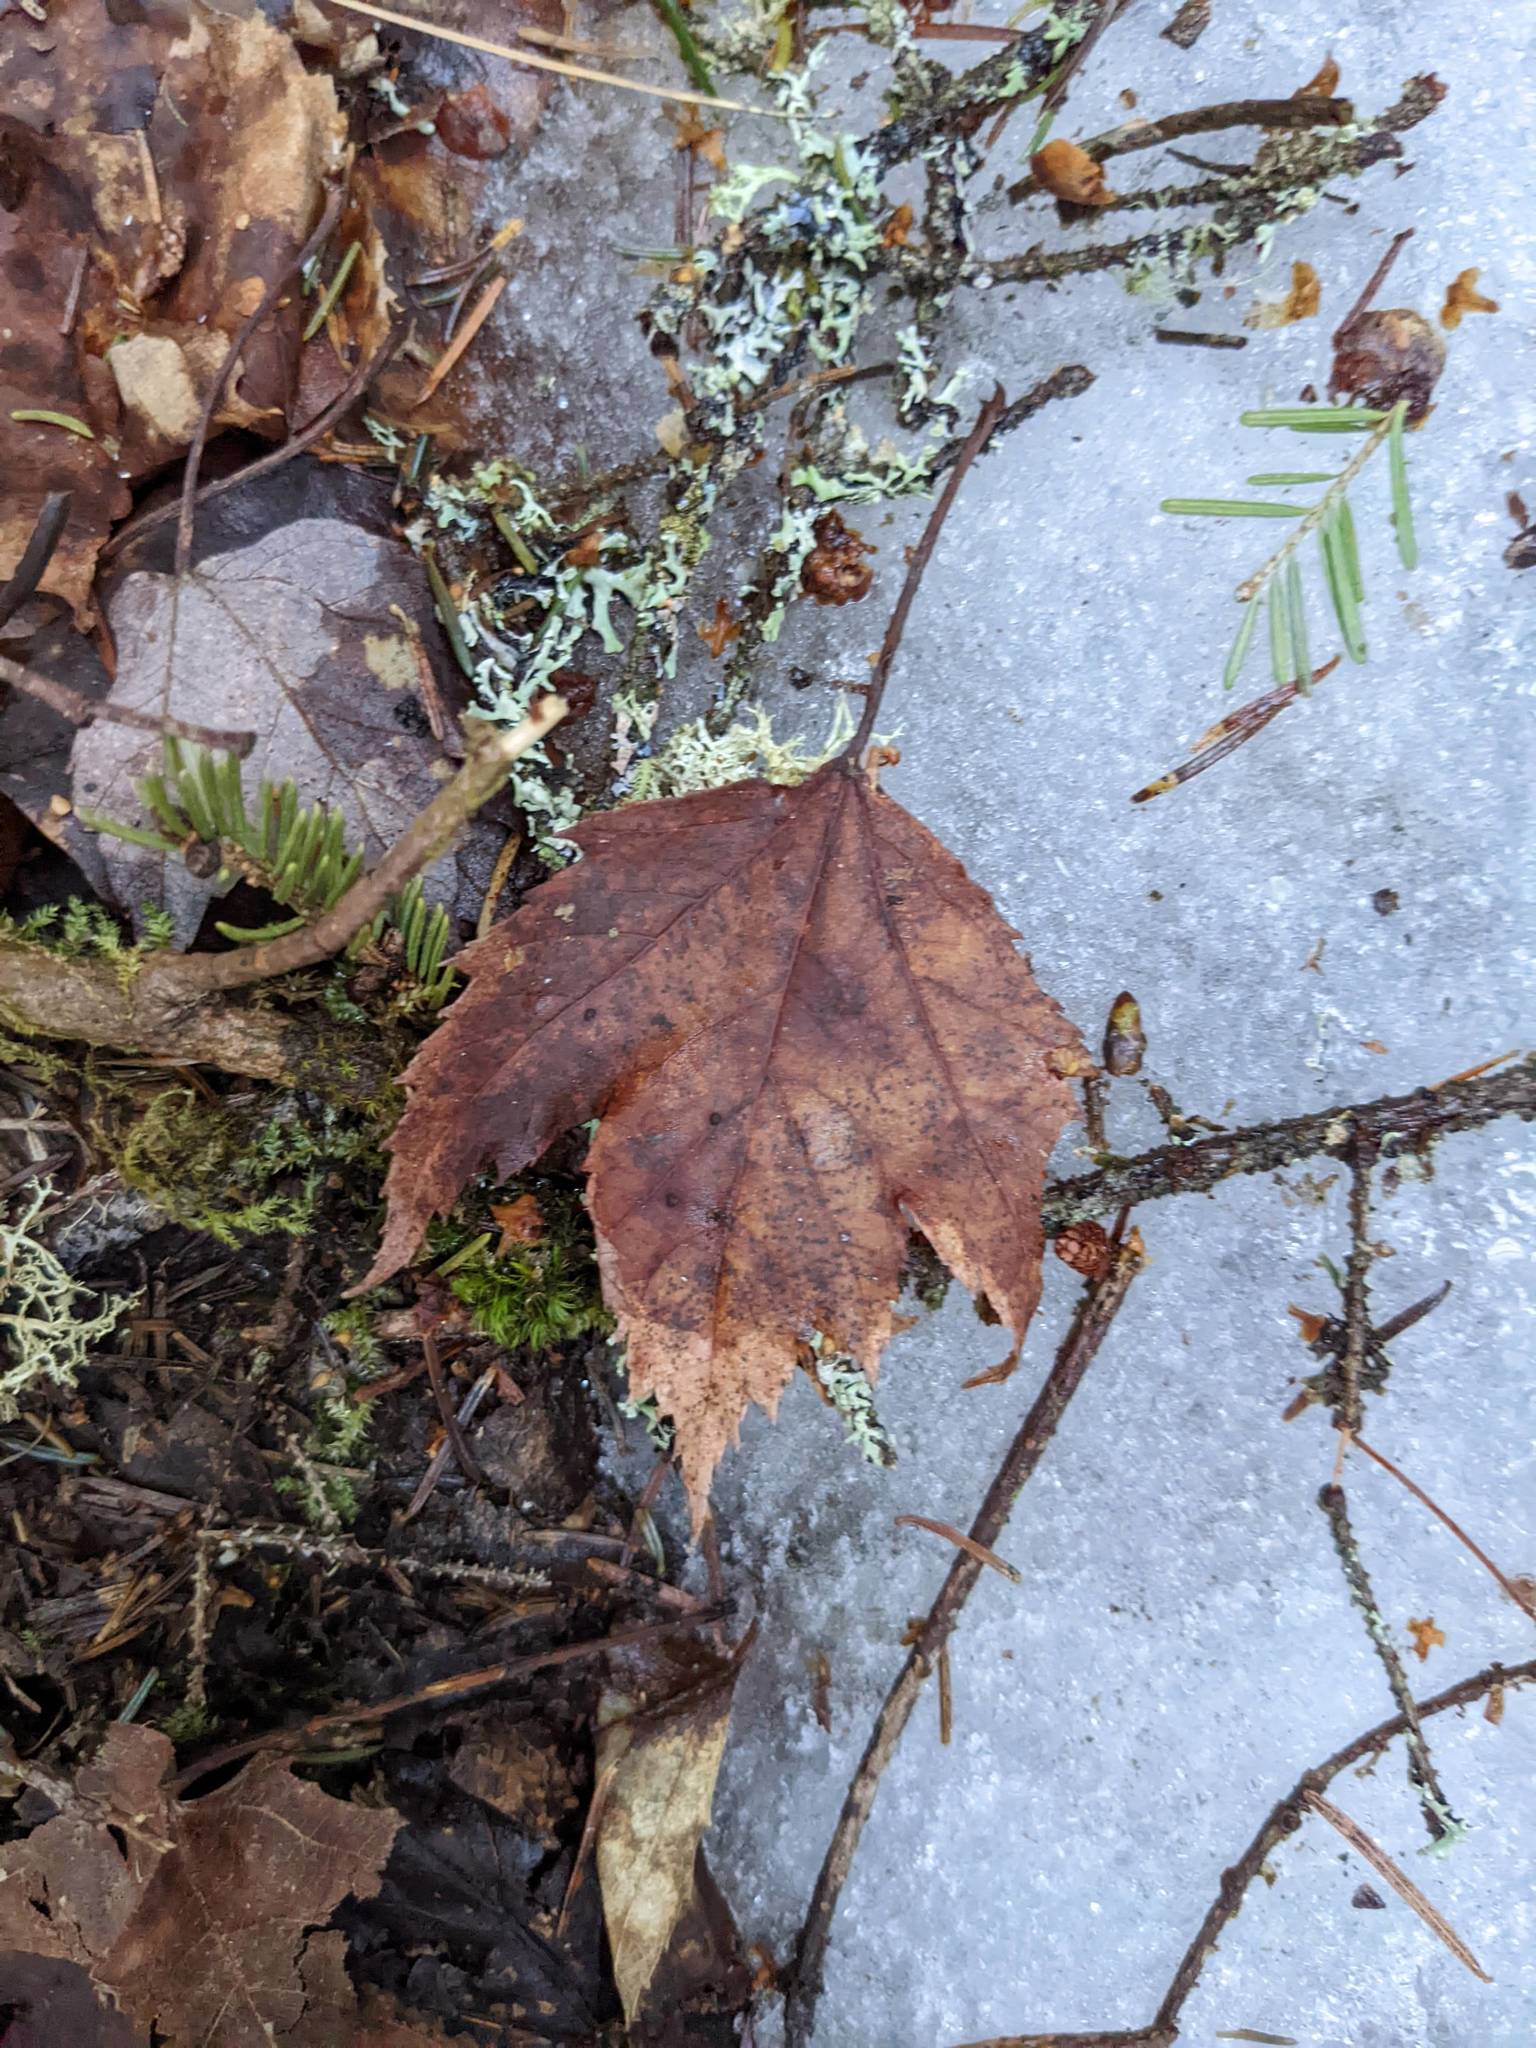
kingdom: Plantae
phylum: Tracheophyta
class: Magnoliopsida
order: Sapindales
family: Sapindaceae
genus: Acer
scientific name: Acer rubrum
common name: Red maple
